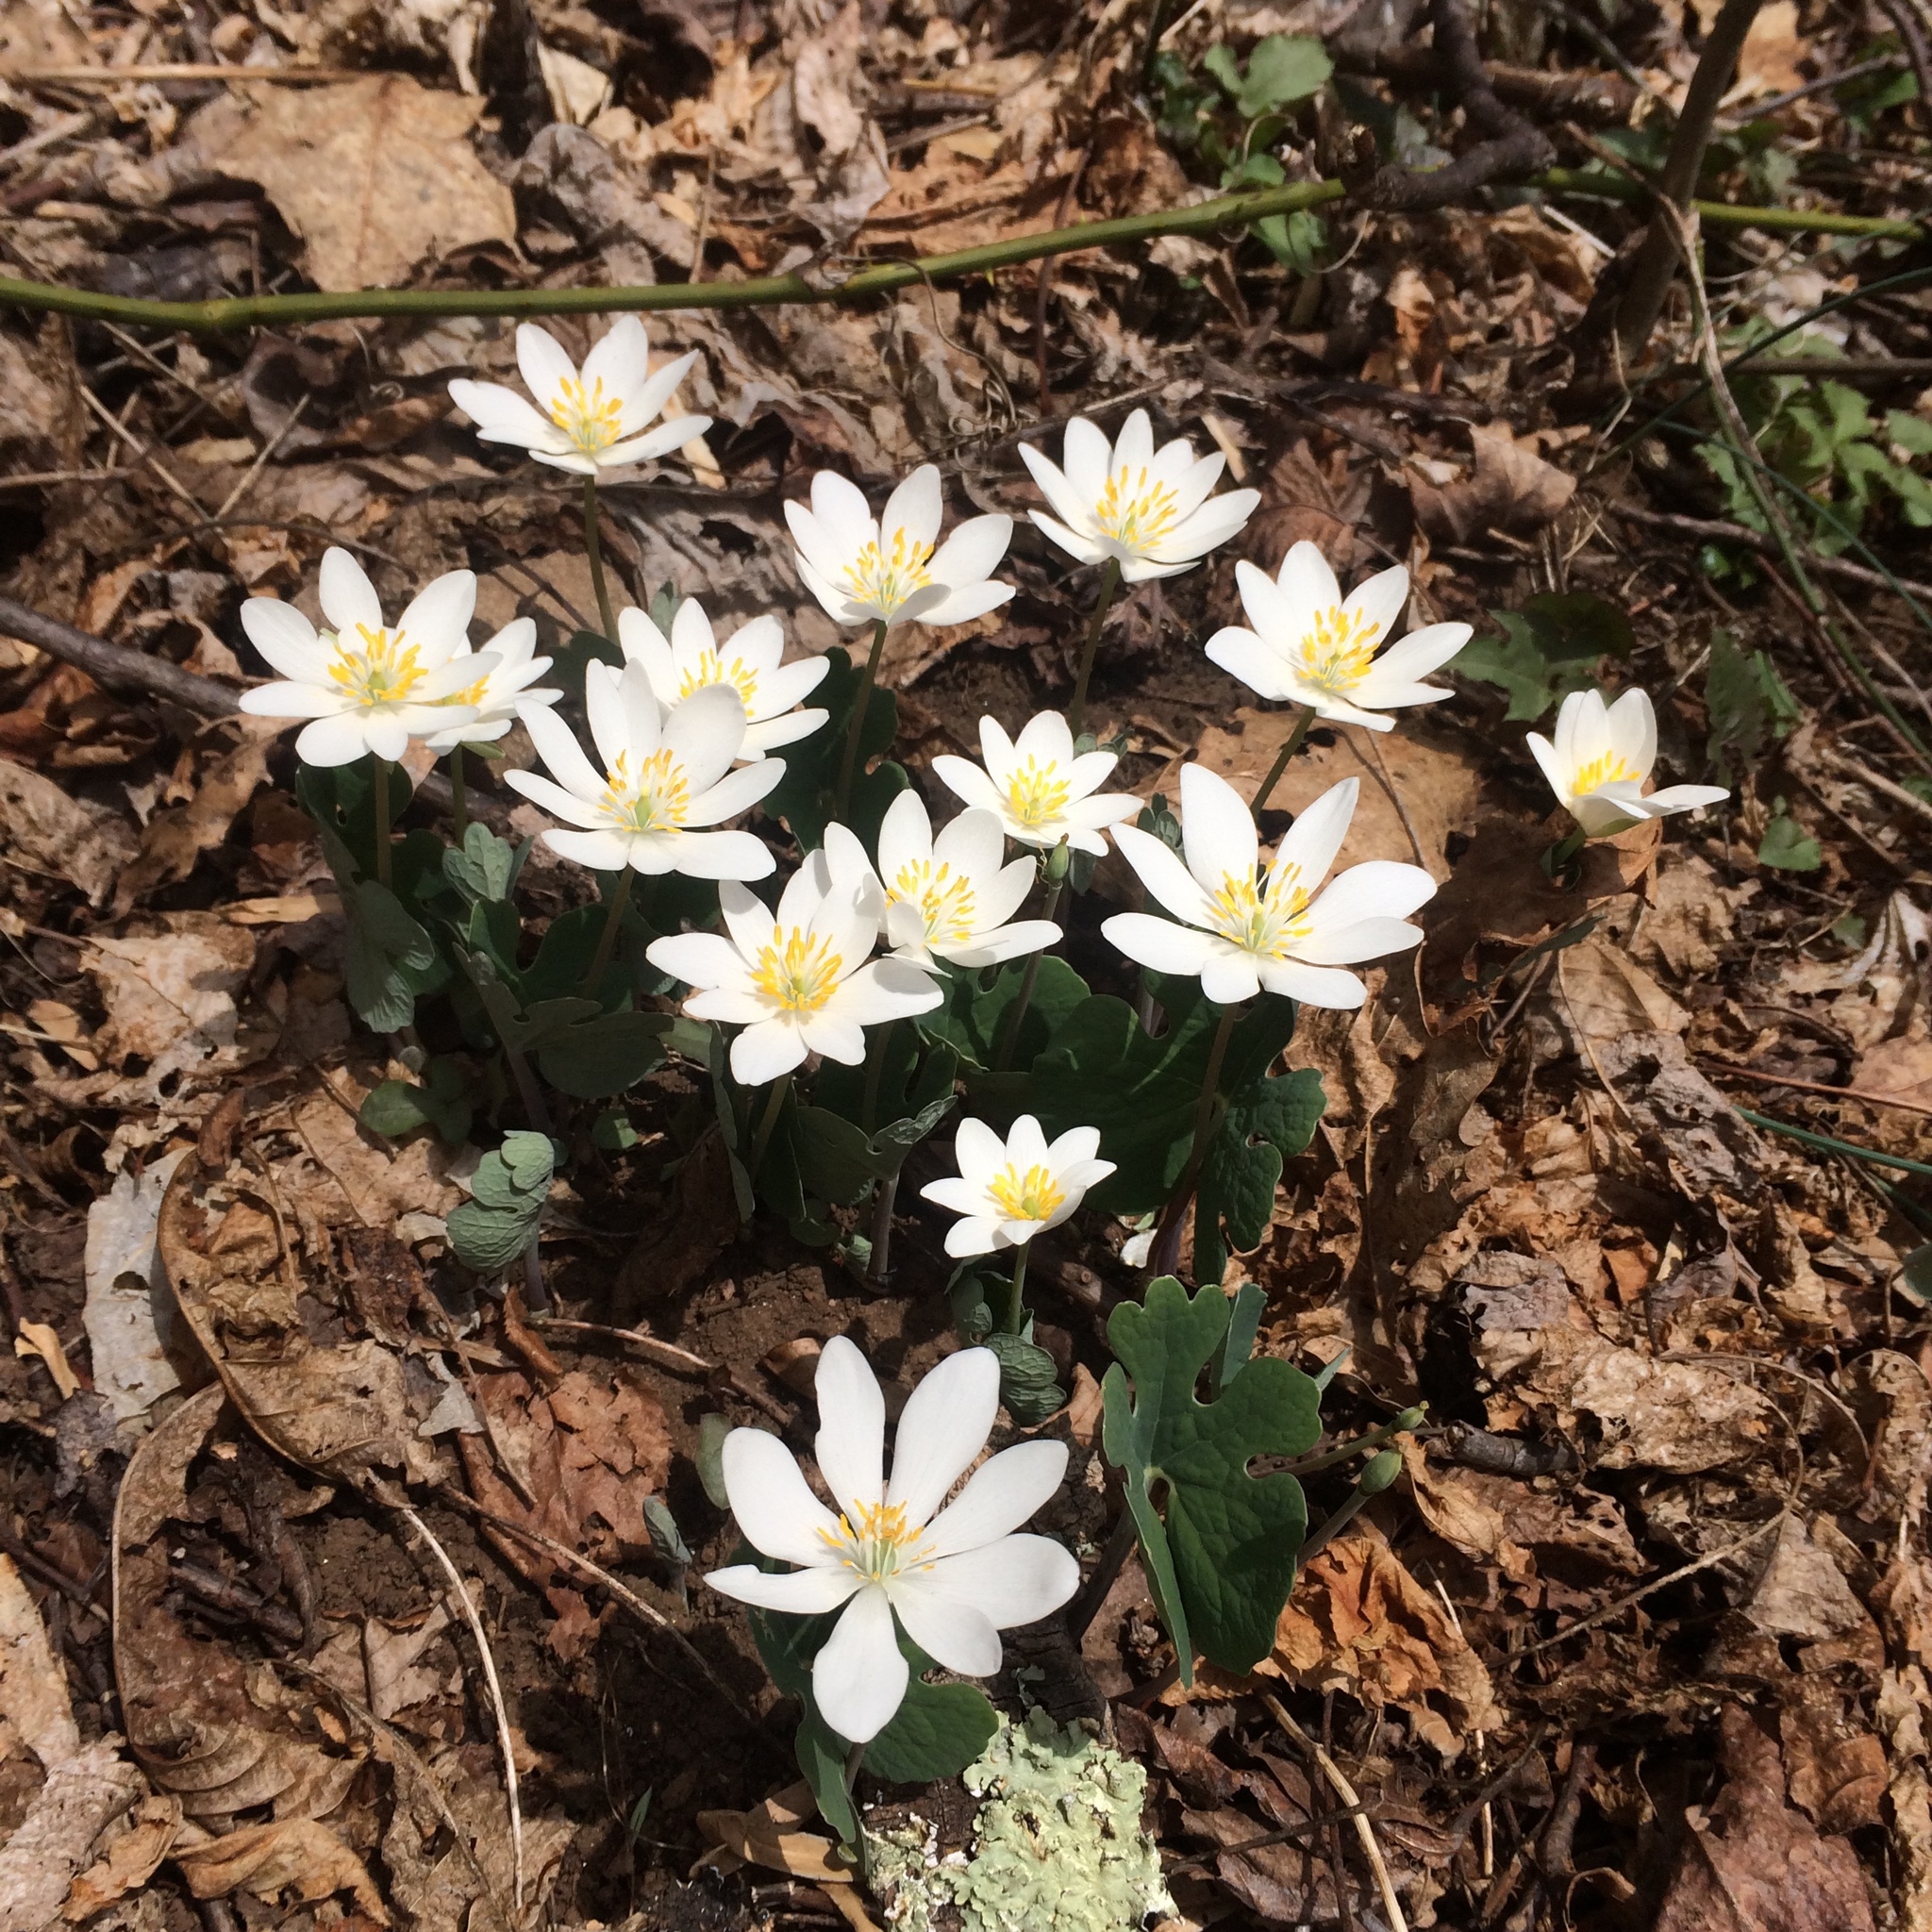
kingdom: Plantae
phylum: Tracheophyta
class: Magnoliopsida
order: Ranunculales
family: Papaveraceae
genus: Sanguinaria
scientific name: Sanguinaria canadensis
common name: Bloodroot
